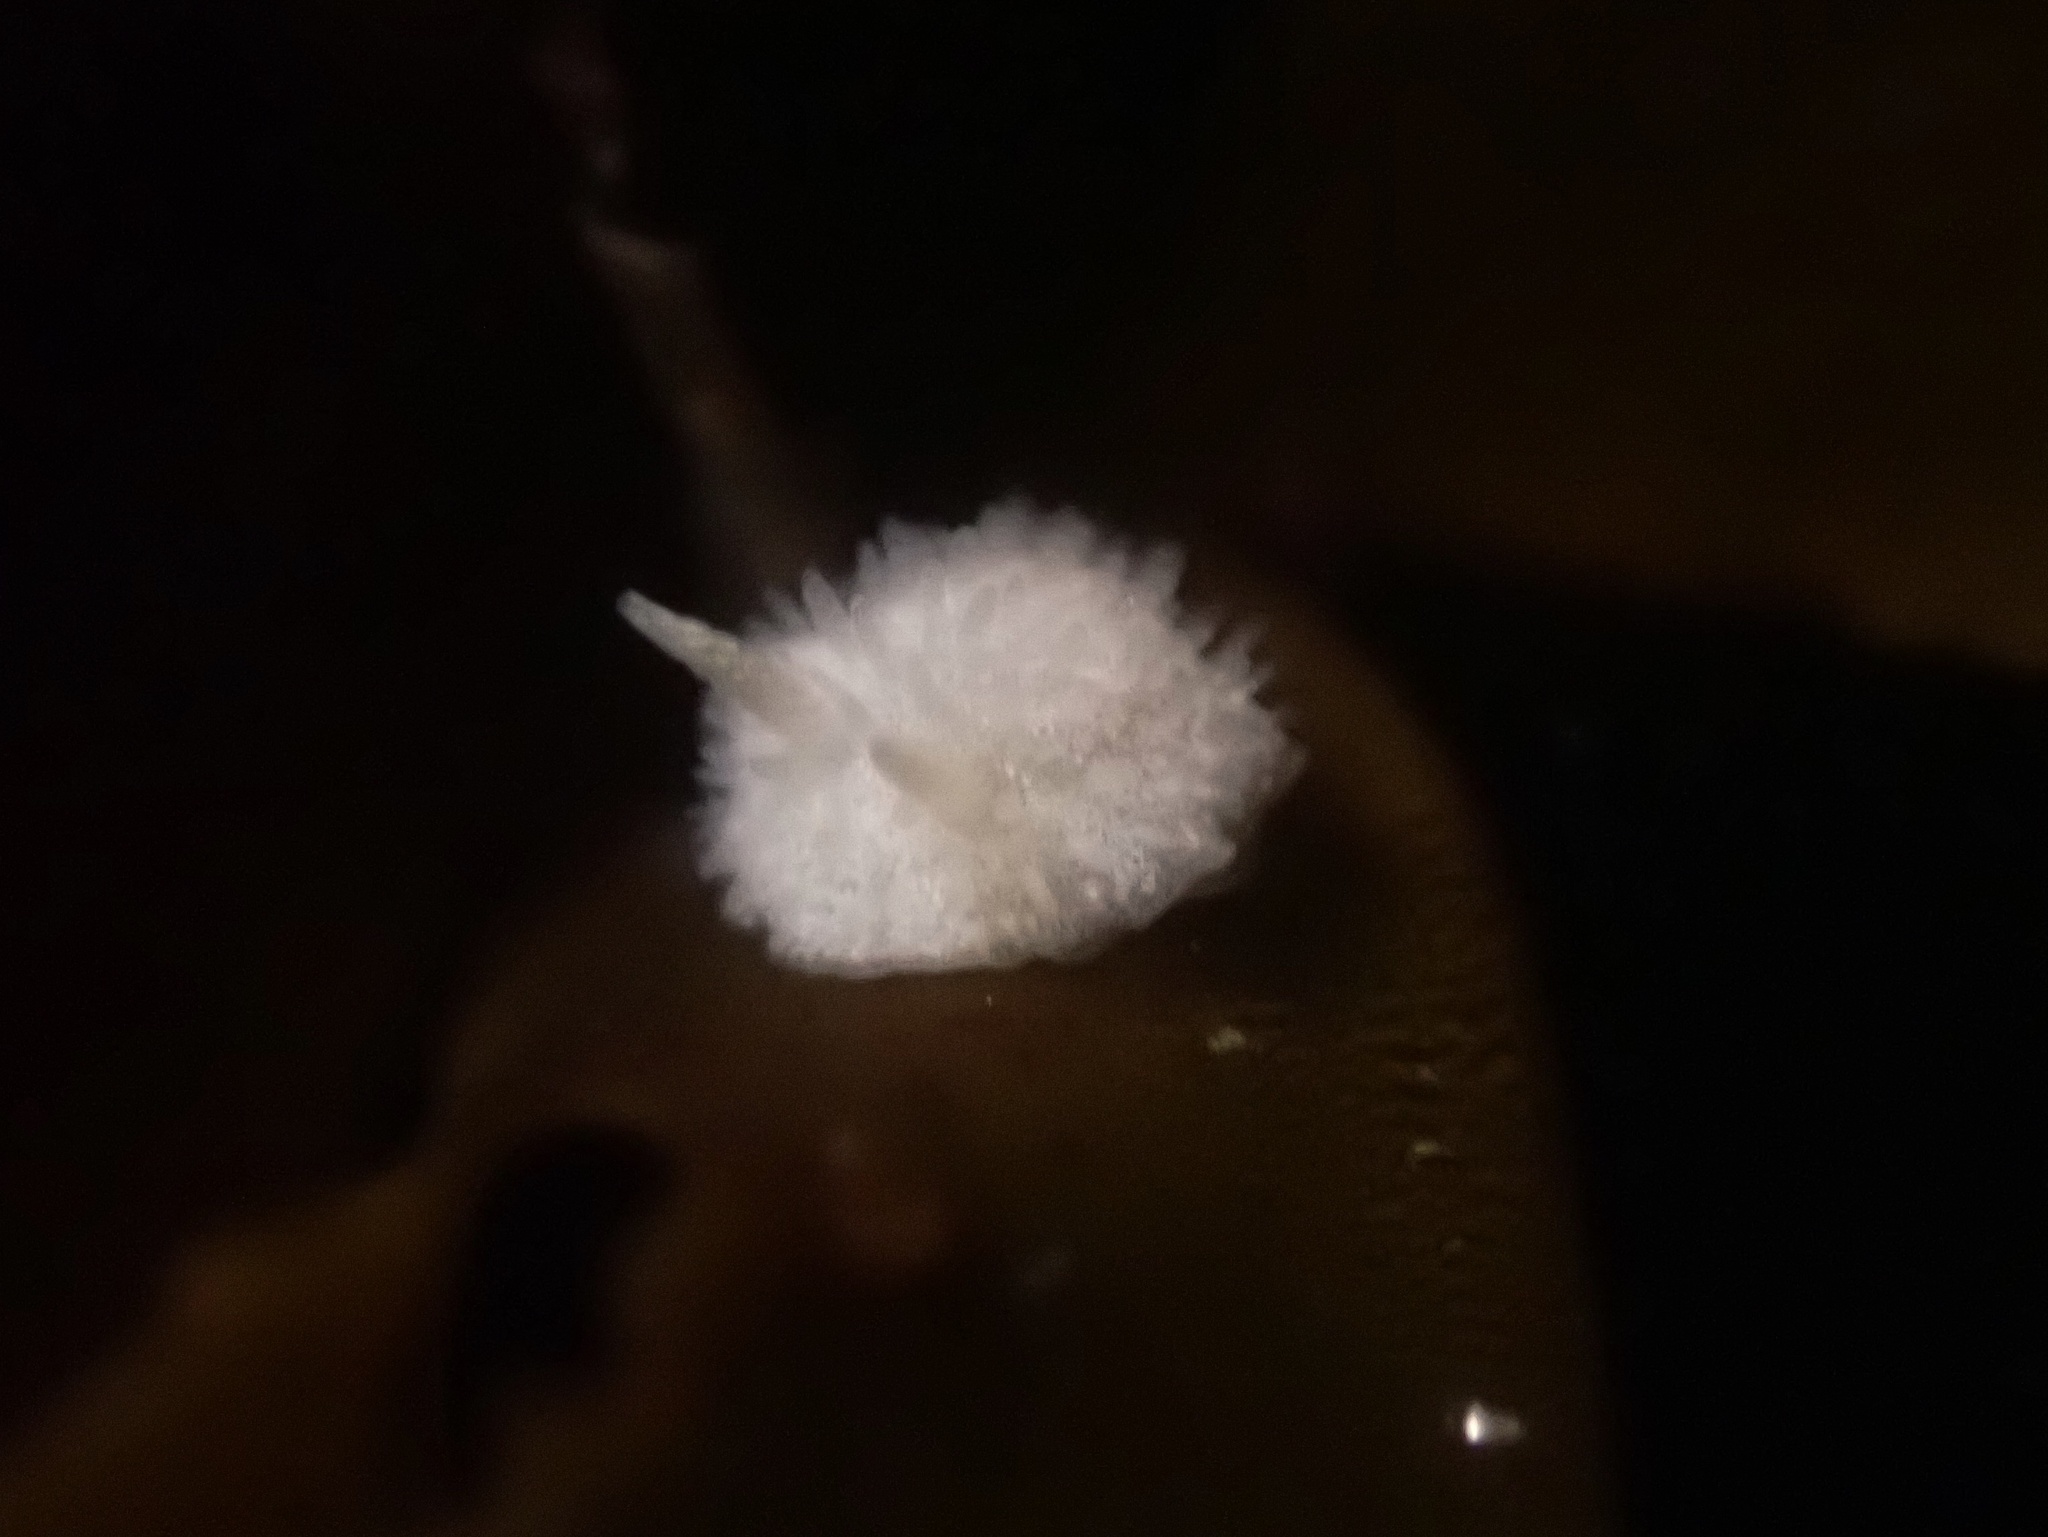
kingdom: Animalia
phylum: Mollusca
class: Gastropoda
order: Nudibranchia
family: Calycidorididae
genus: Diaphorodoris
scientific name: Diaphorodoris lirulatocauda
